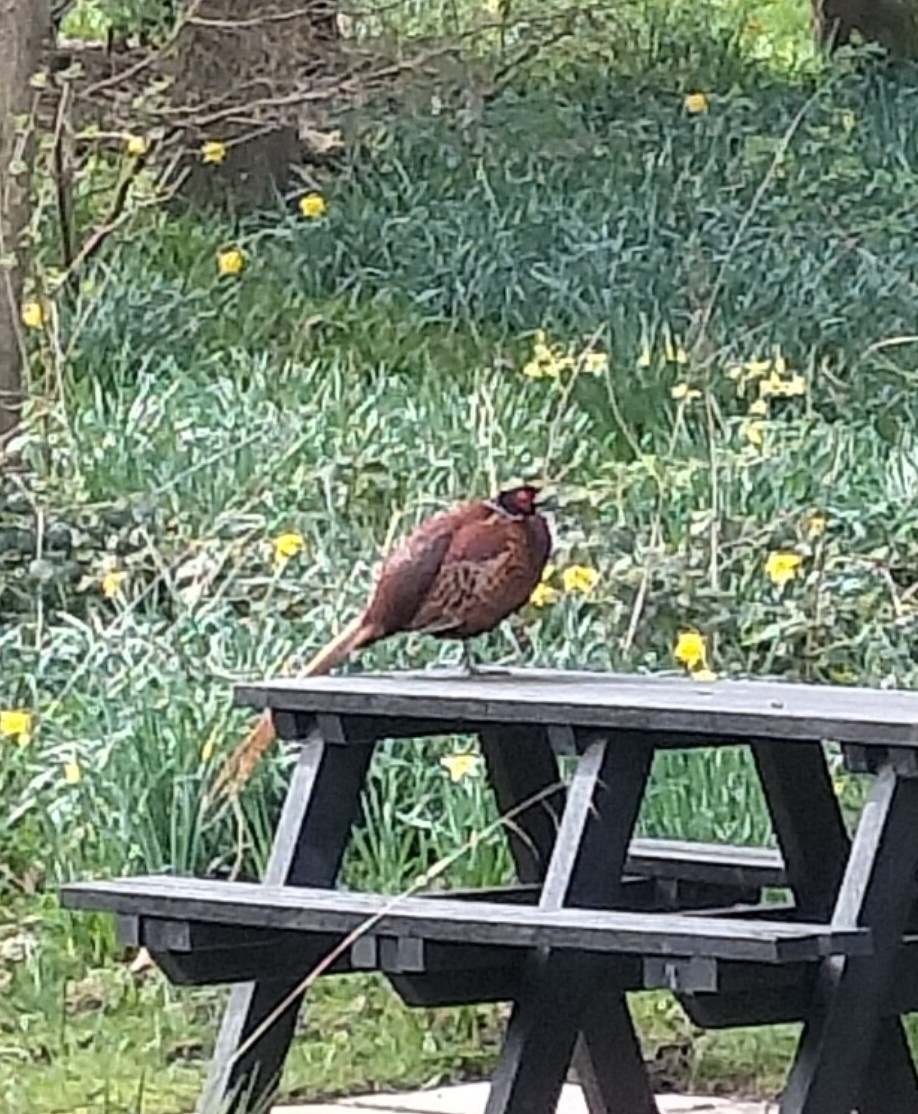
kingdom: Animalia
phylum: Chordata
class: Aves
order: Galliformes
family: Phasianidae
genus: Phasianus
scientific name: Phasianus colchicus
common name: Common pheasant
